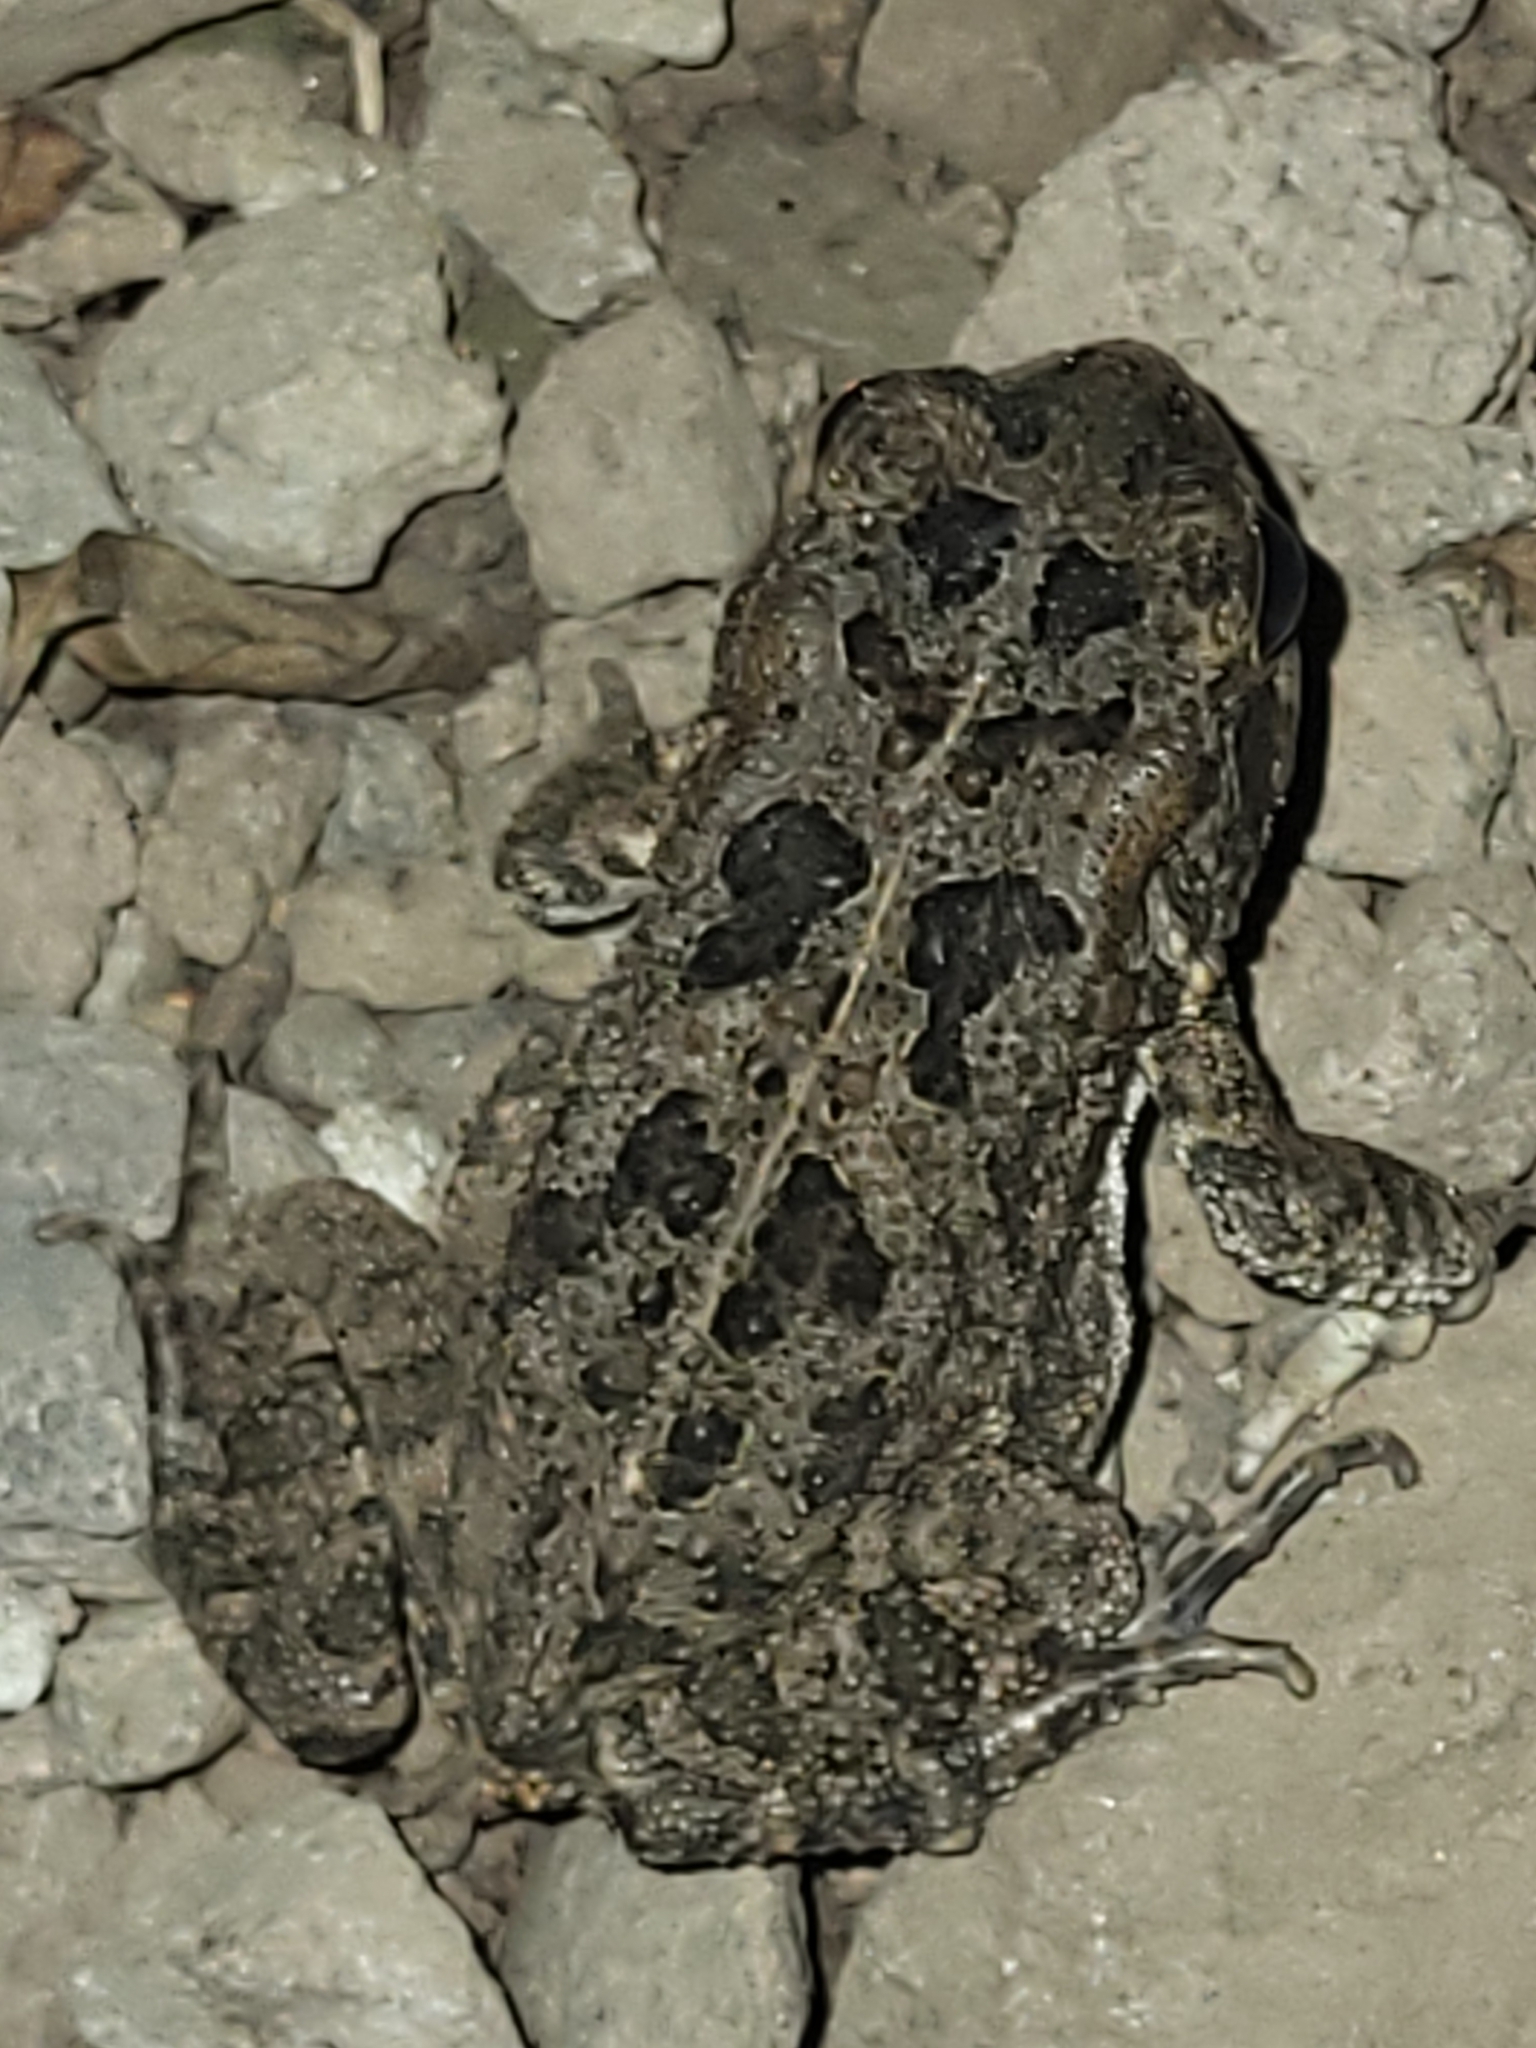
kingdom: Animalia
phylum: Chordata
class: Amphibia
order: Anura
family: Bufonidae
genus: Sclerophrys
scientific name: Sclerophrys gutturalis
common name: African common toad
